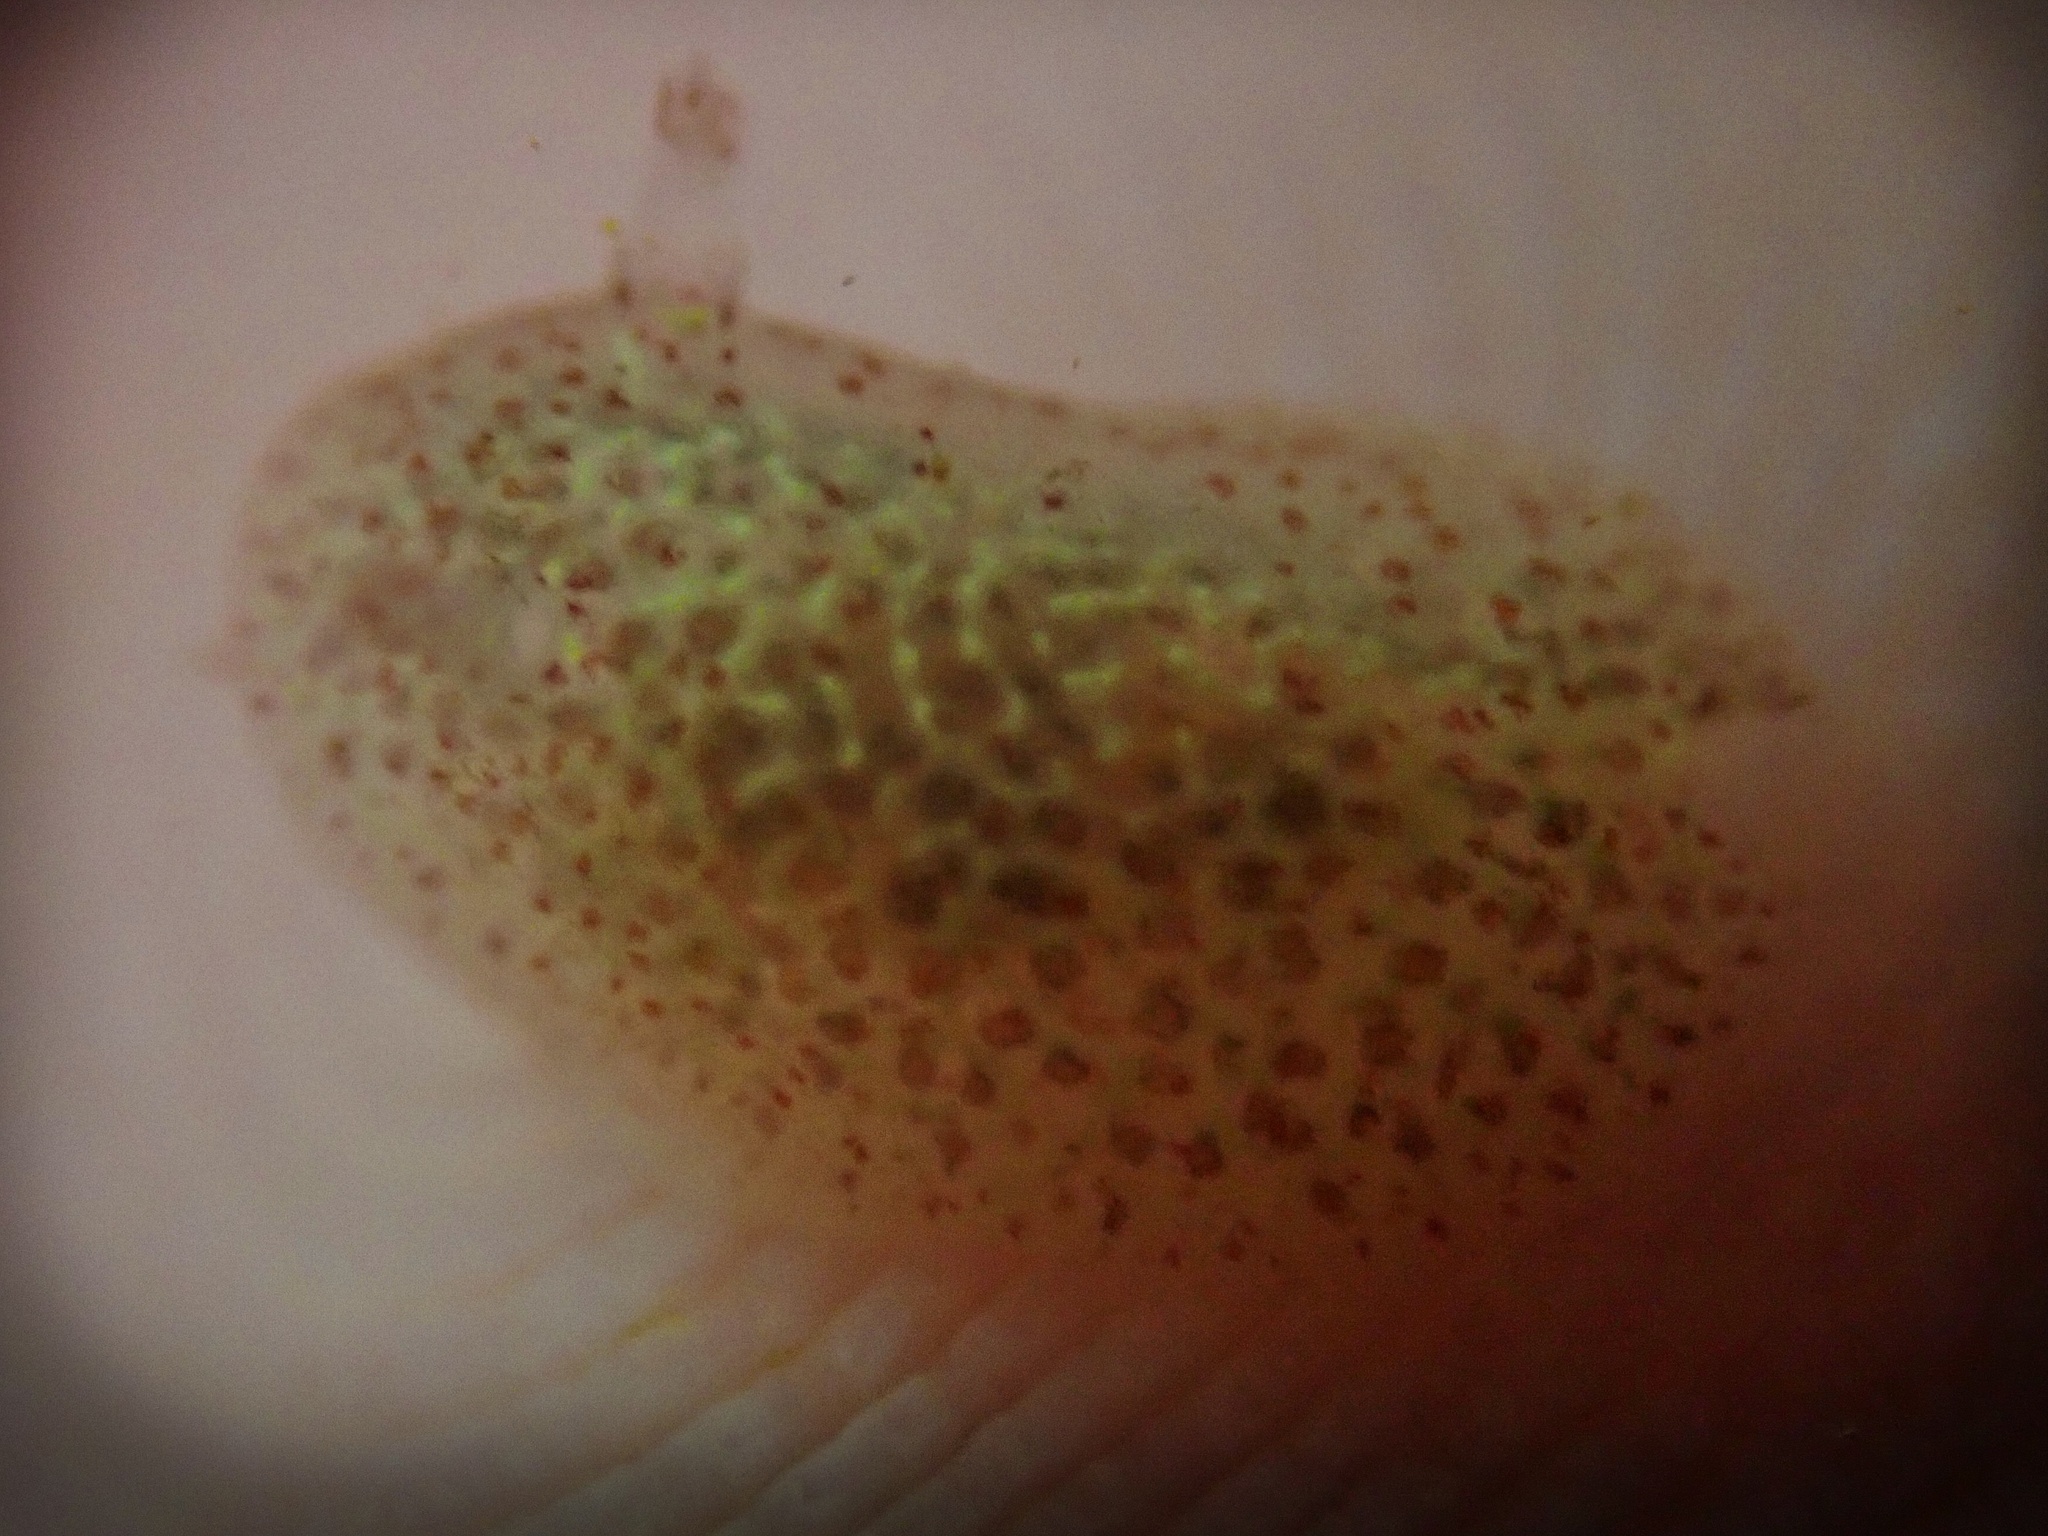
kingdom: Animalia
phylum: Mollusca
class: Gastropoda
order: Nudibranchia
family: Corambidae
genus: Corambe
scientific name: Corambe pacifica
